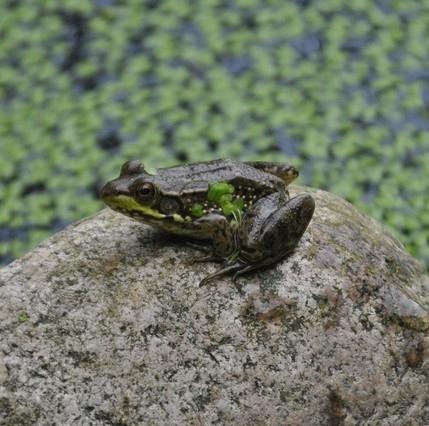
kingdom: Animalia
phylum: Chordata
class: Amphibia
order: Anura
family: Ranidae
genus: Lithobates
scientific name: Lithobates clamitans
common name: Green frog
